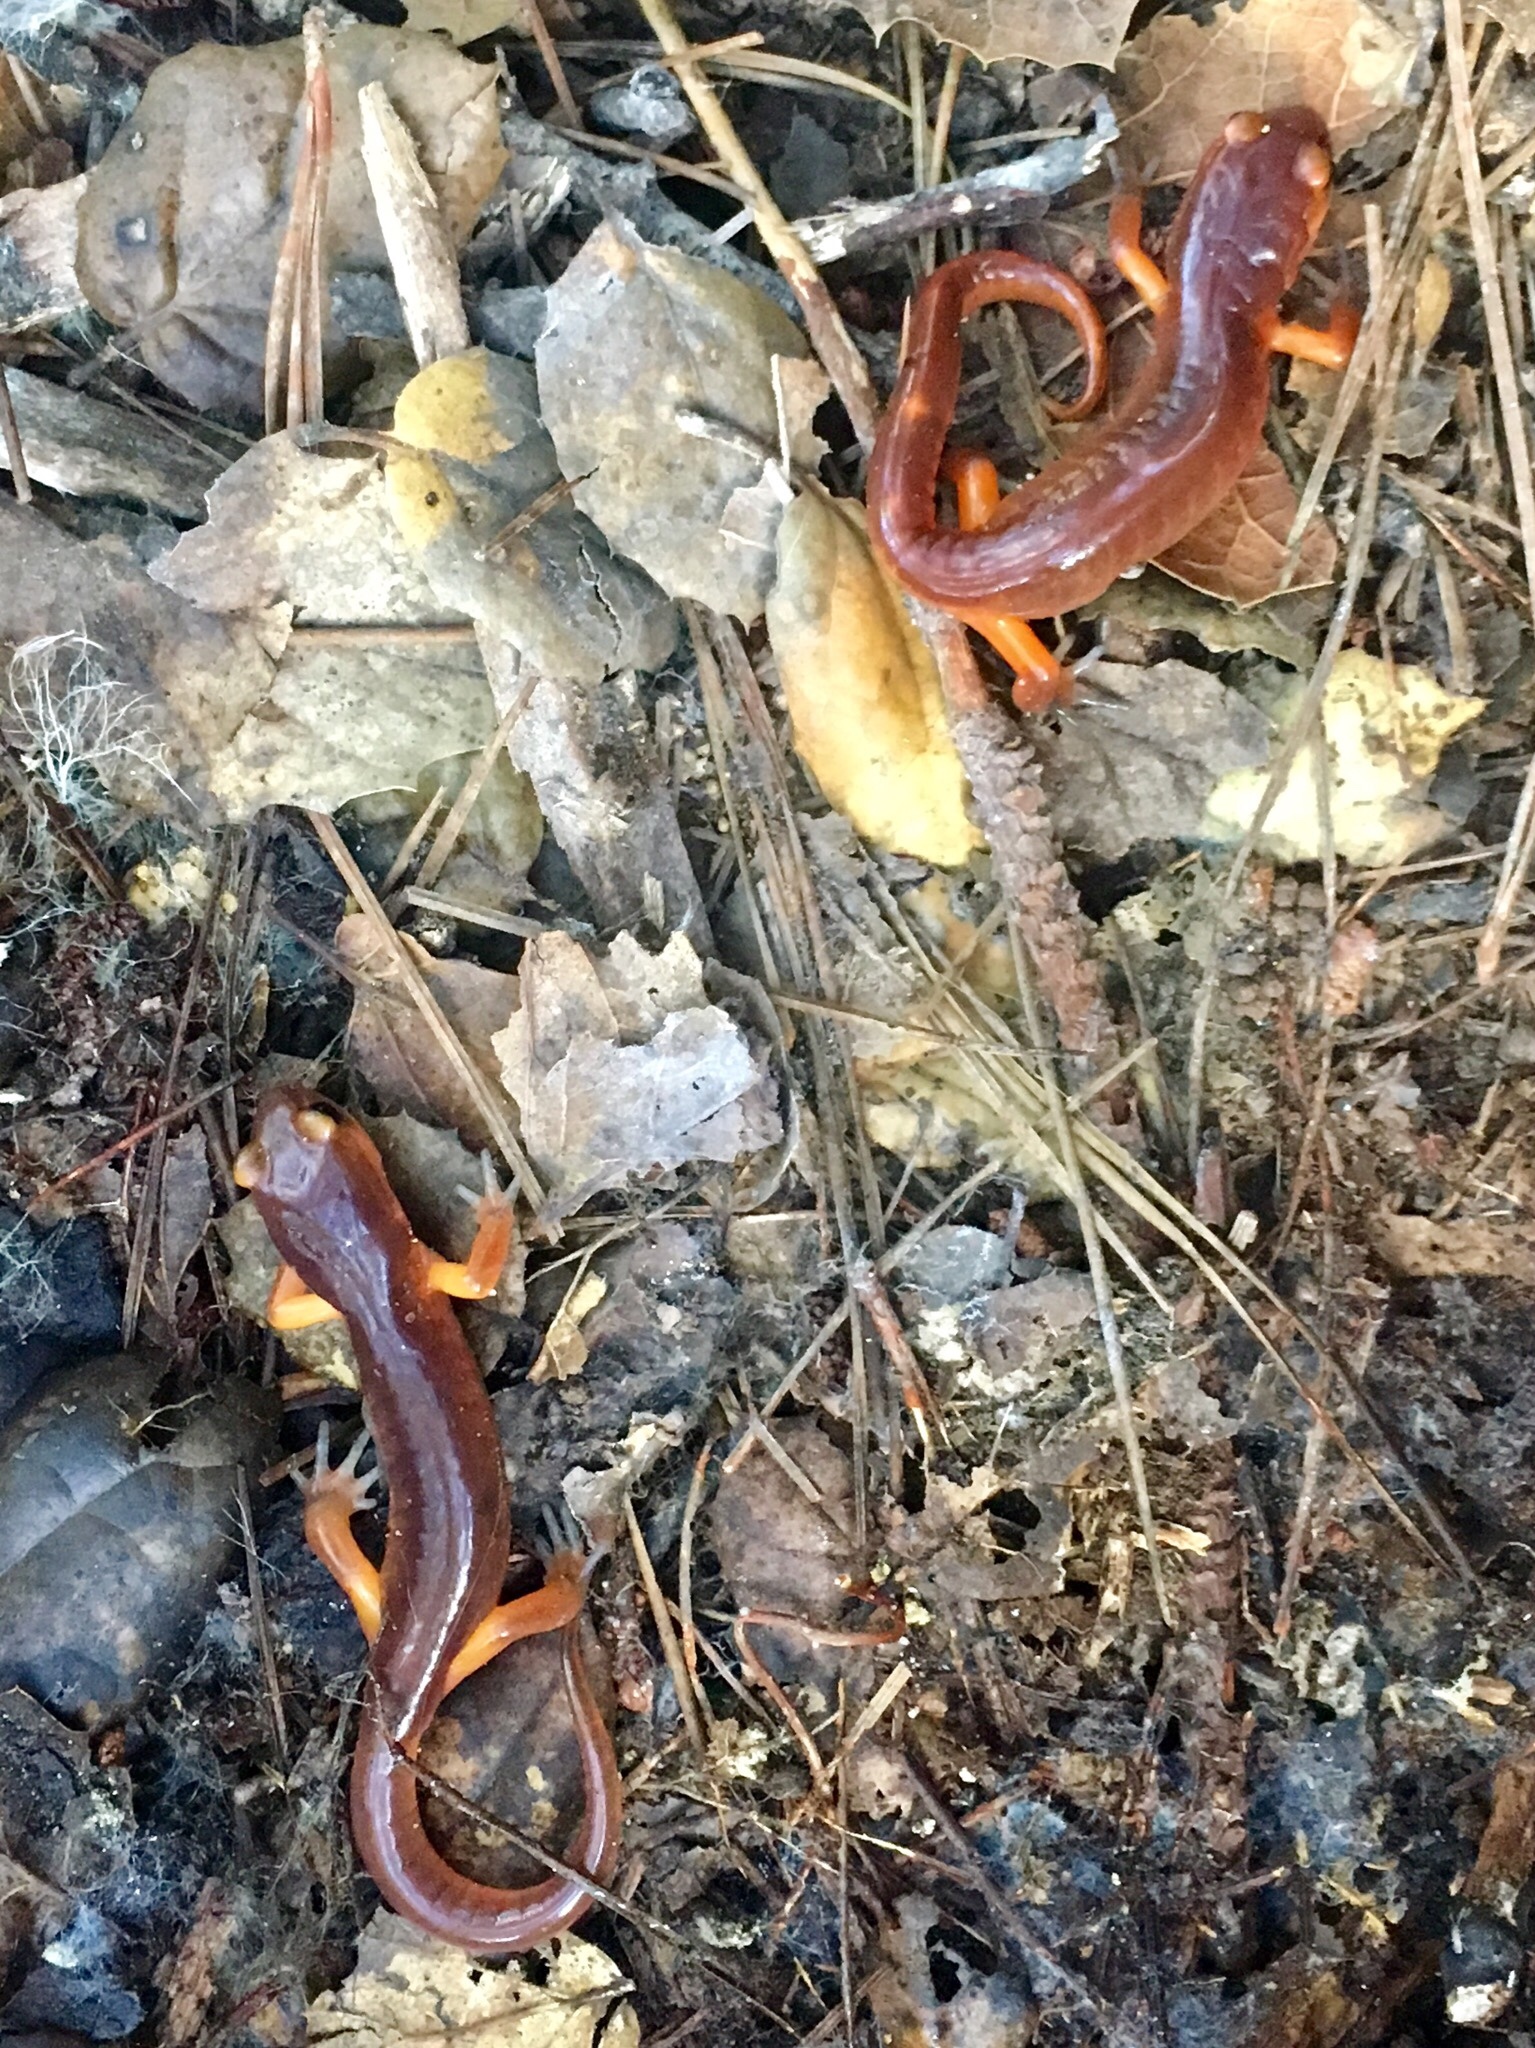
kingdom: Animalia
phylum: Chordata
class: Amphibia
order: Caudata
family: Plethodontidae
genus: Ensatina
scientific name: Ensatina eschscholtzii
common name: Ensatina
